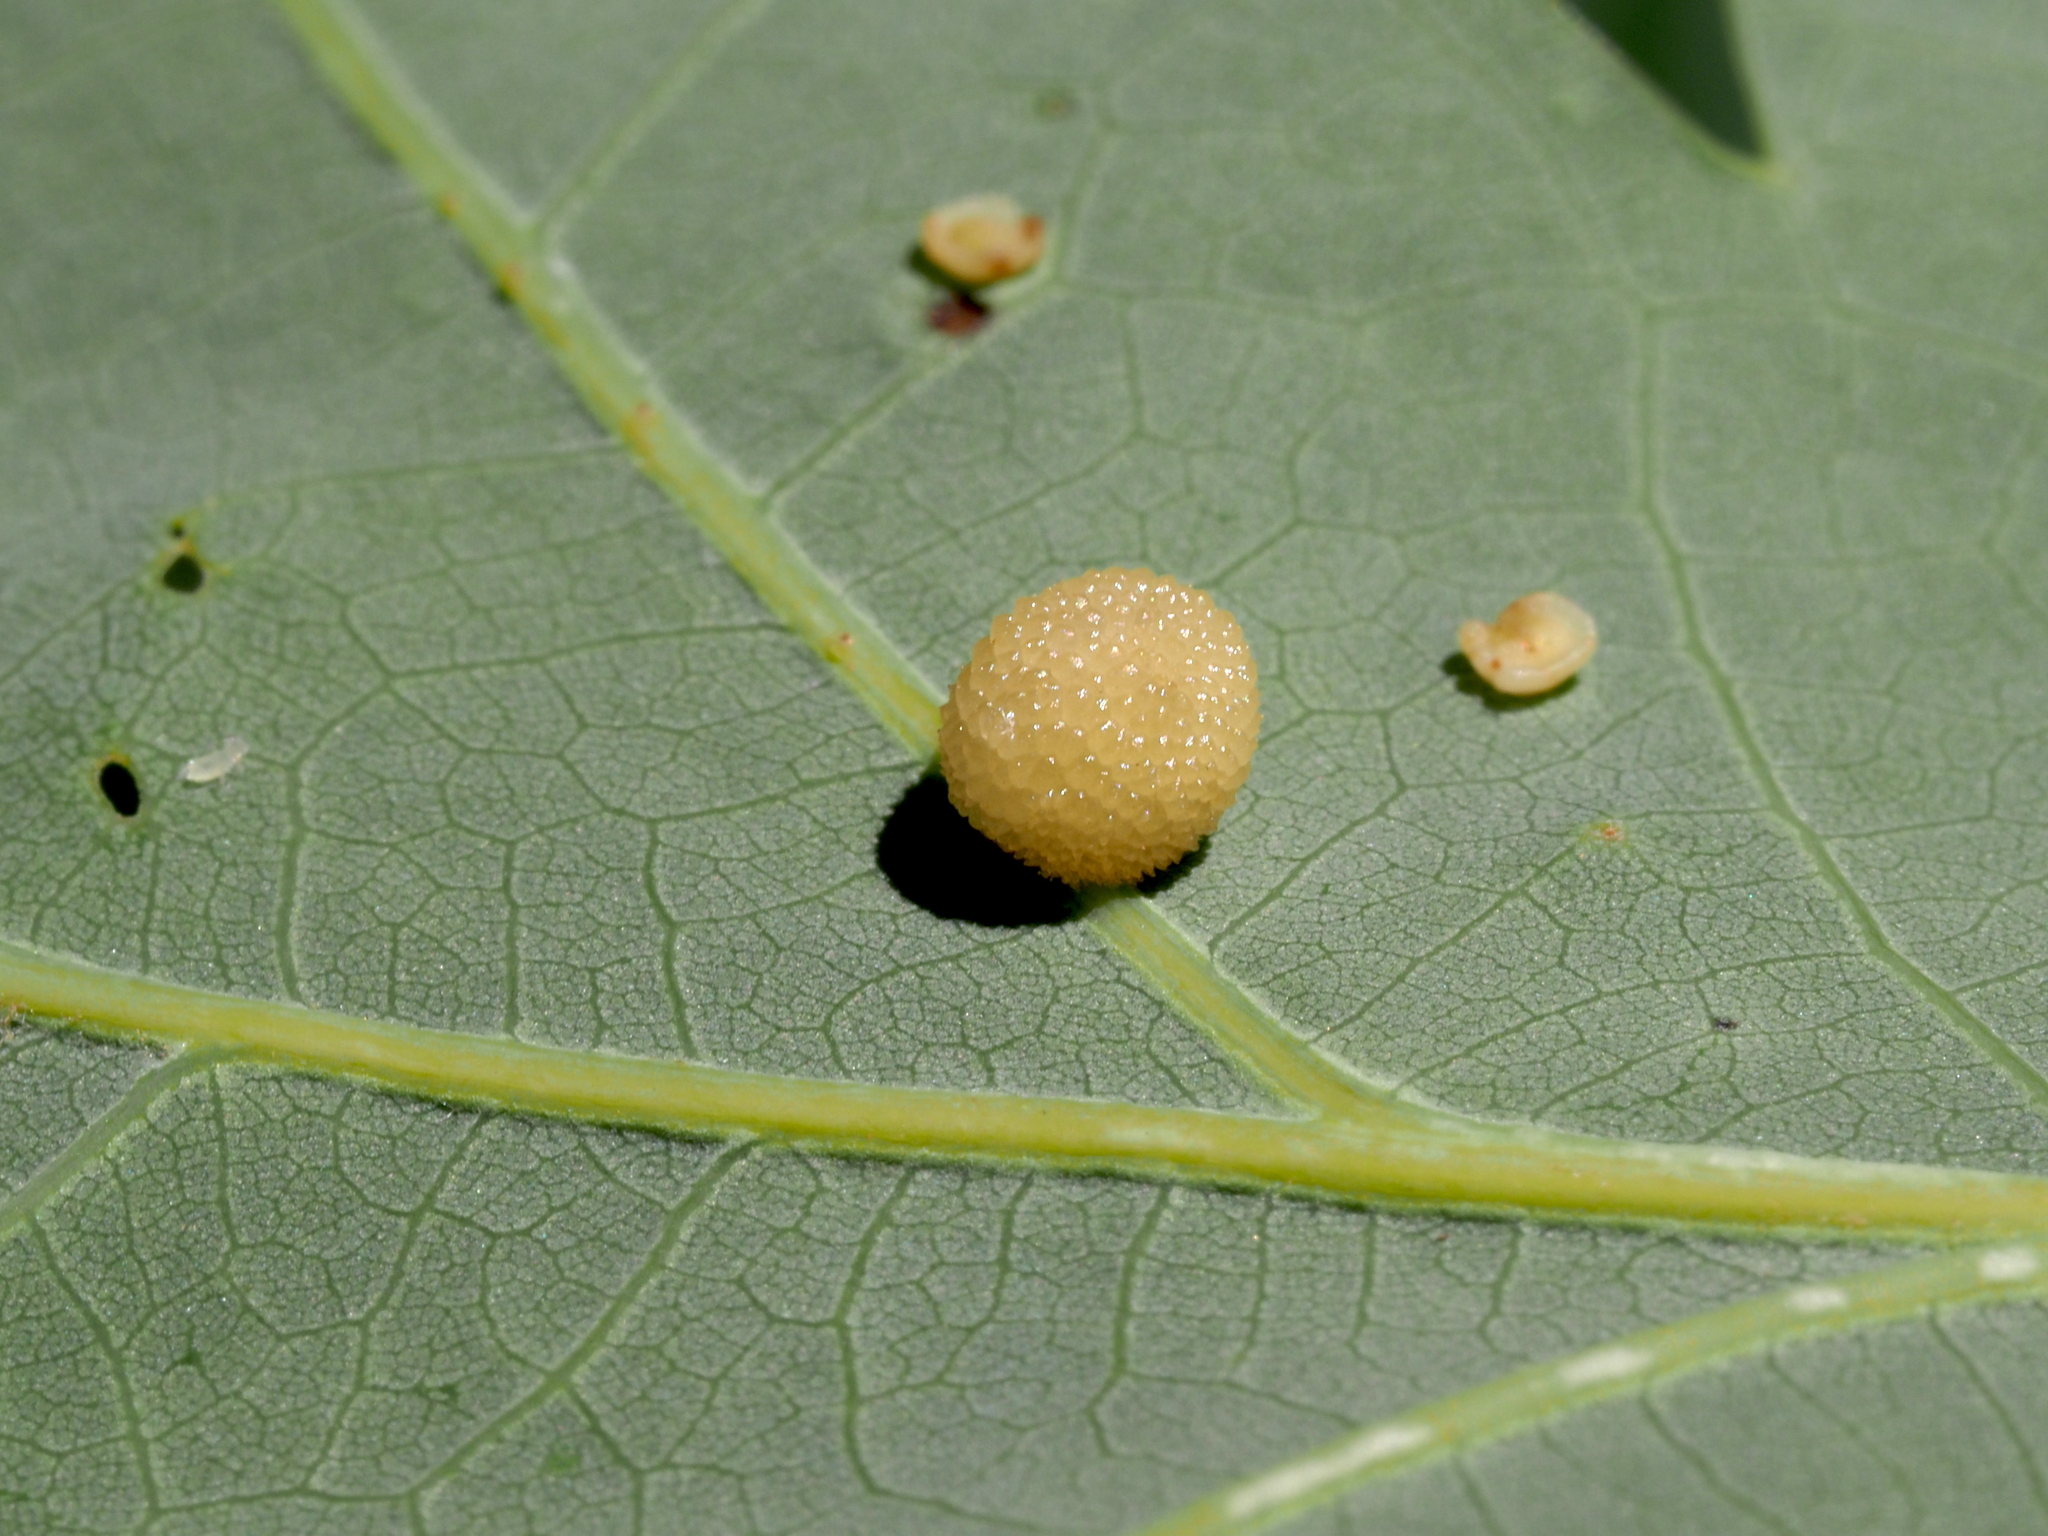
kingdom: Animalia
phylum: Arthropoda
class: Insecta
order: Hymenoptera
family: Cynipidae
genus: Acraspis
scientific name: Acraspis
